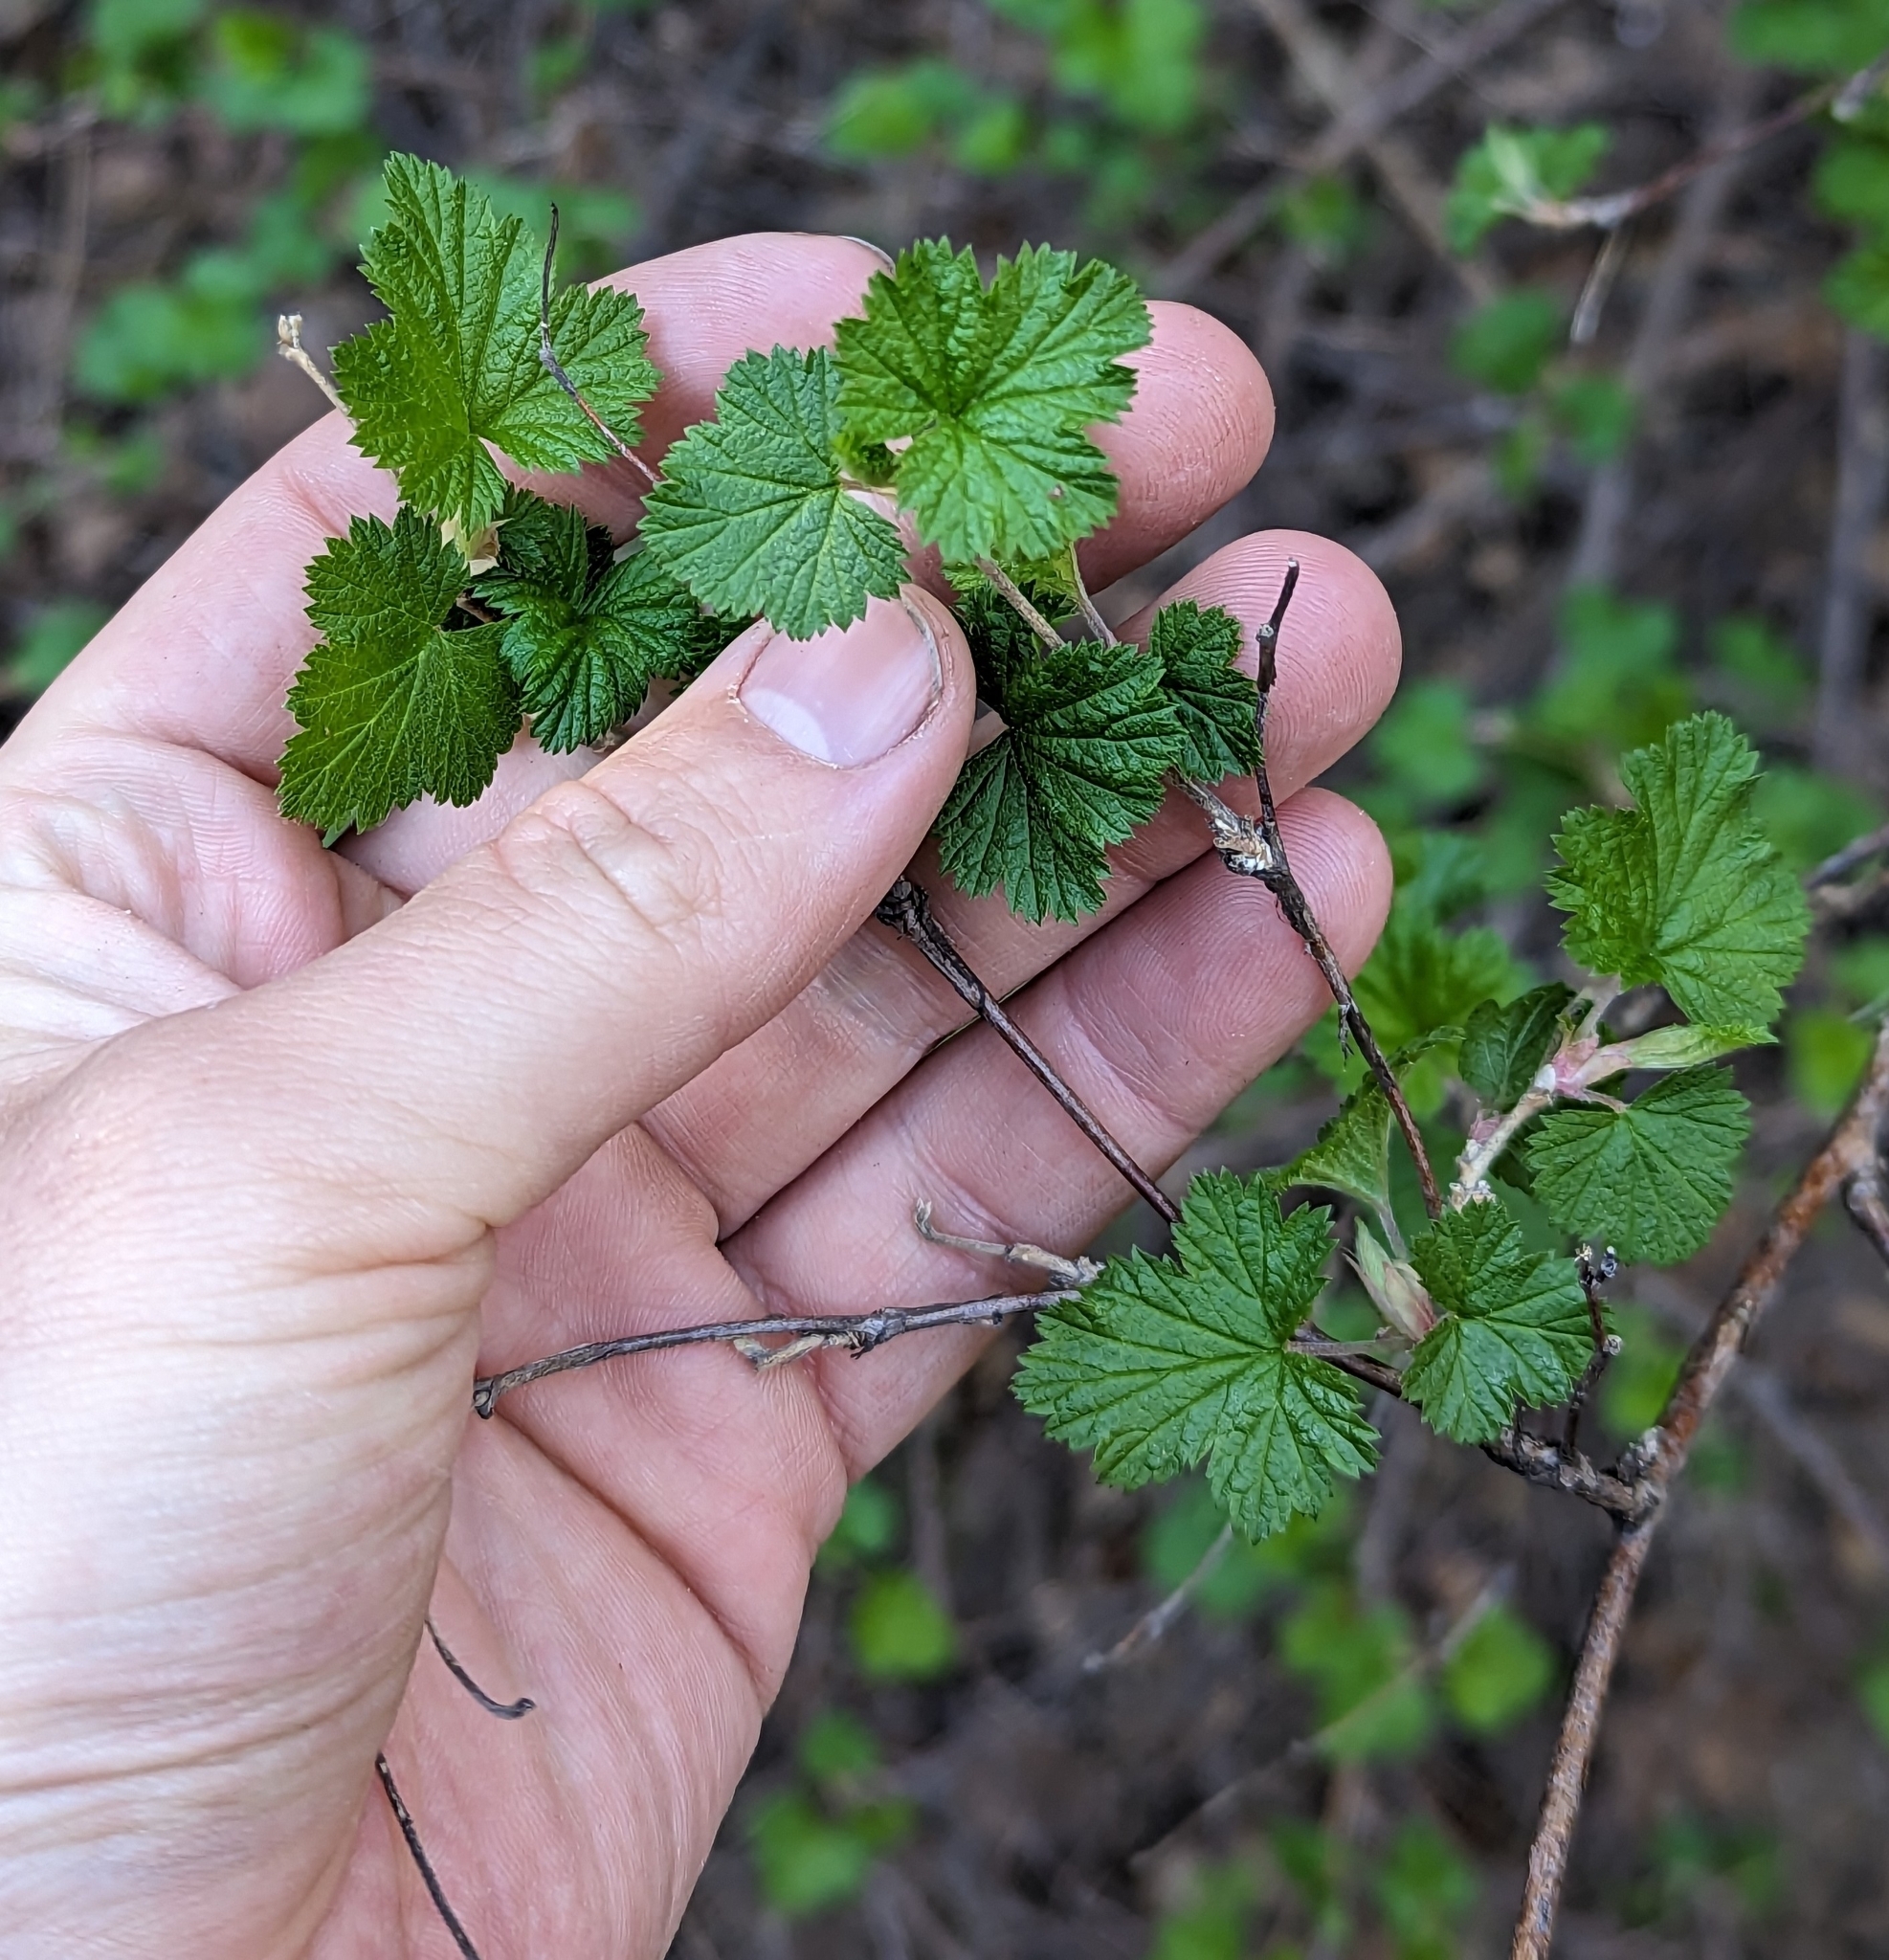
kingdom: Plantae
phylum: Tracheophyta
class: Magnoliopsida
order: Rosales
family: Rosaceae
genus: Rubus
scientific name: Rubus neomexicanus
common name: New mexico raspberry
